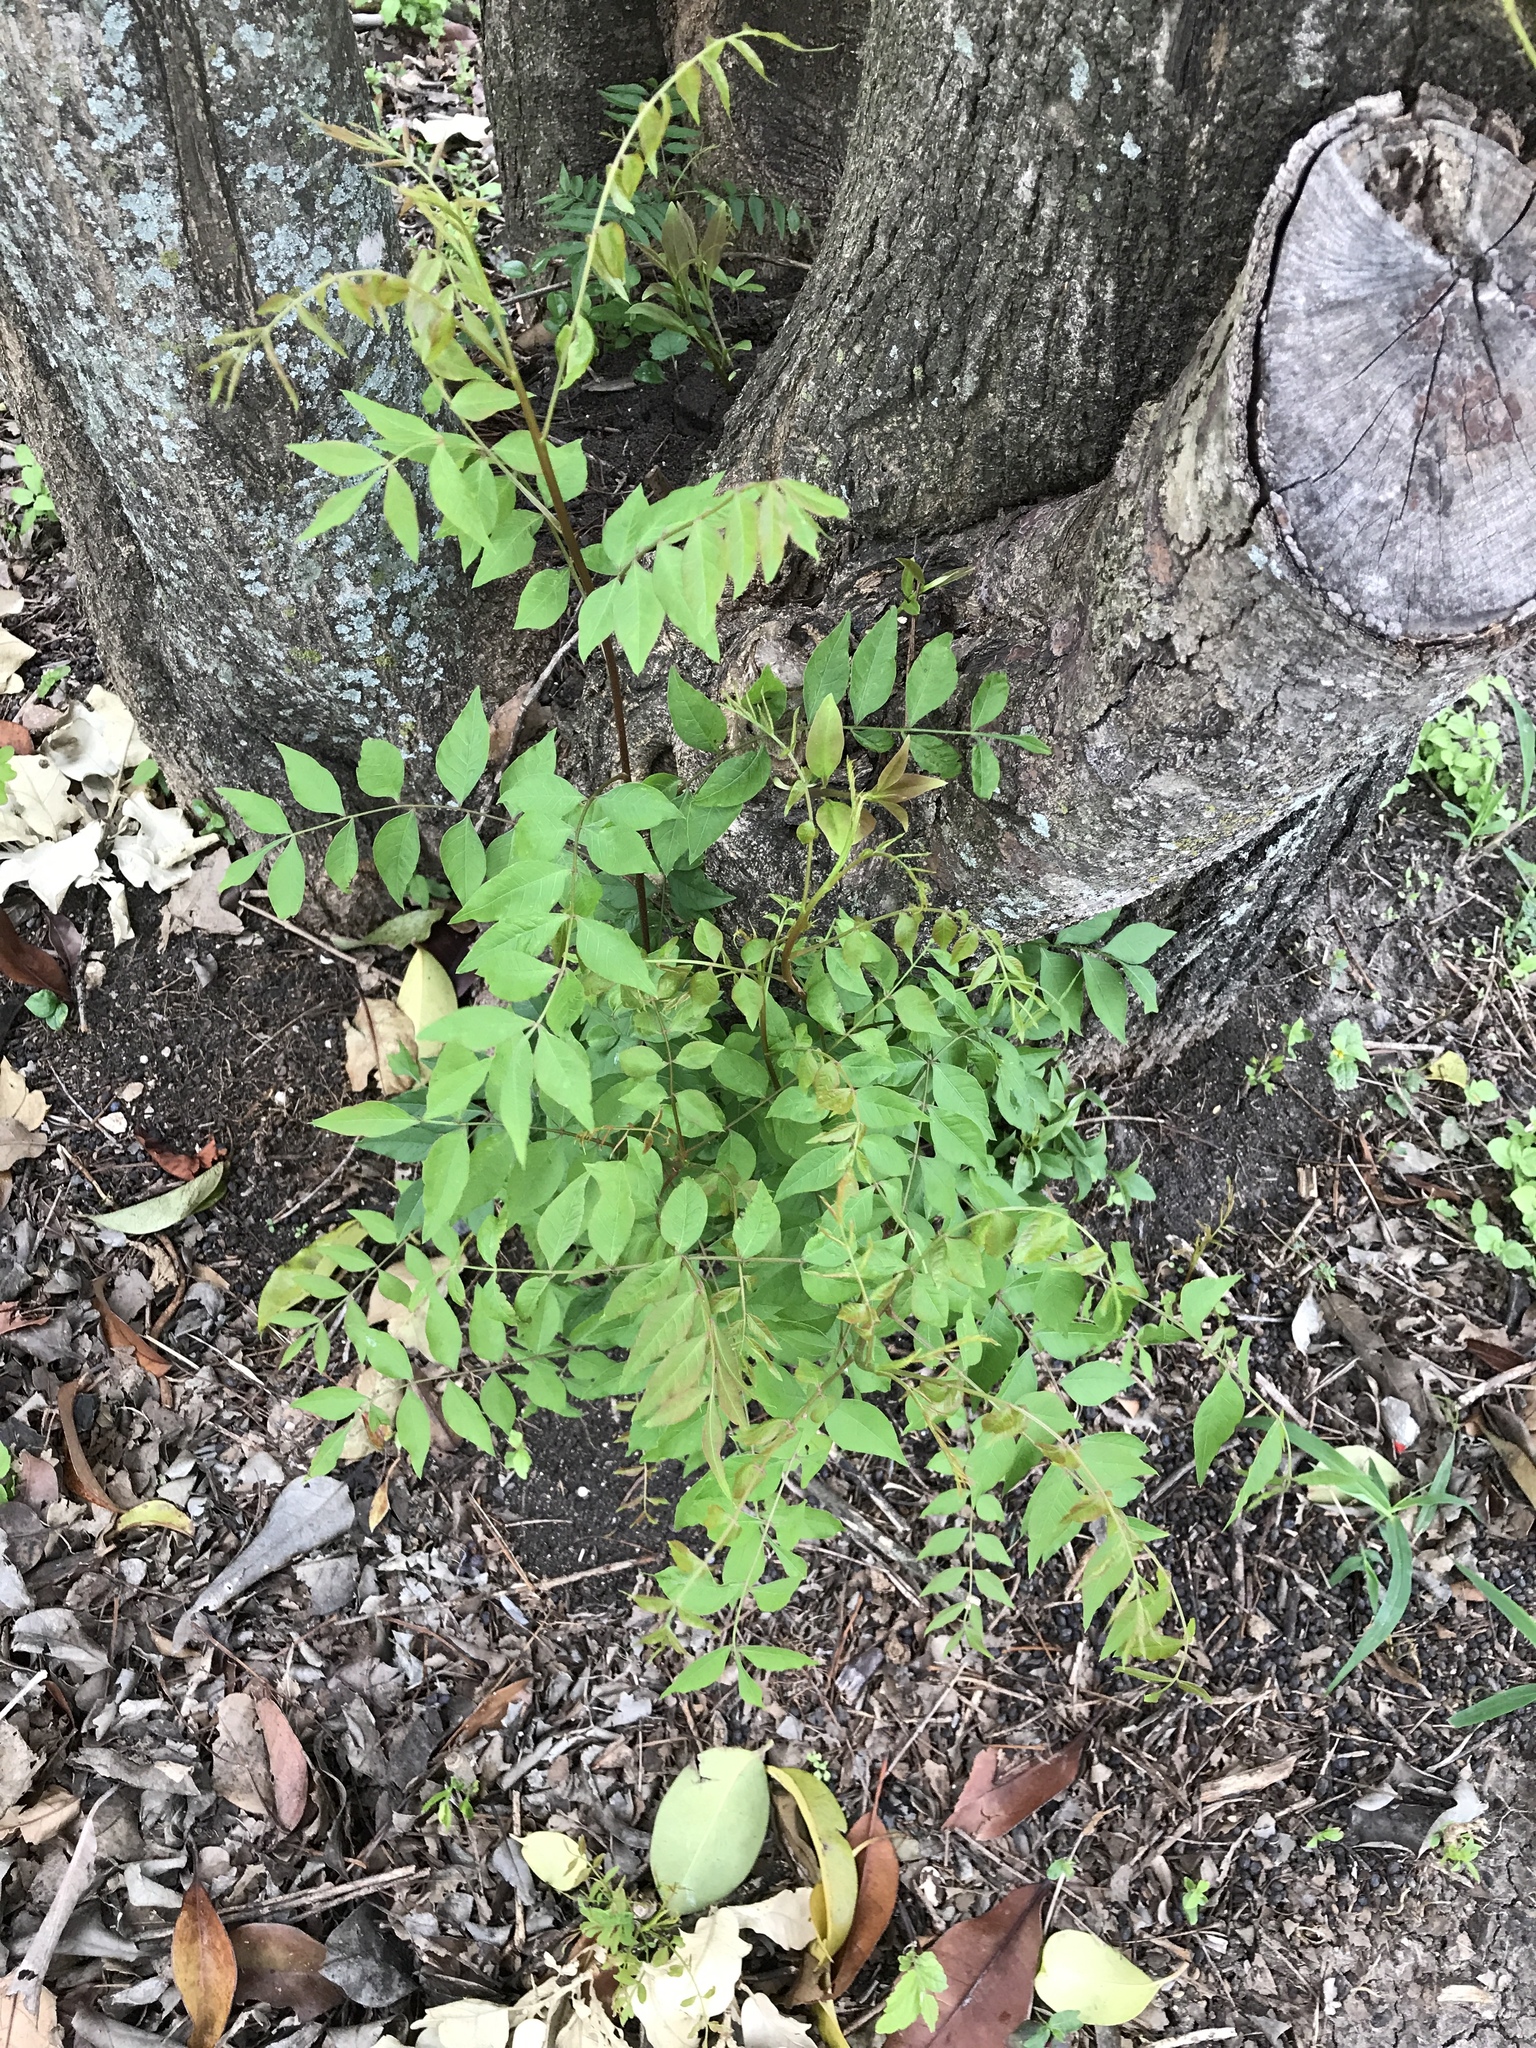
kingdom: Plantae
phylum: Tracheophyta
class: Magnoliopsida
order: Sapindales
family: Anacardiaceae
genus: Pistacia
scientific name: Pistacia chinensis
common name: Chinese pistache
